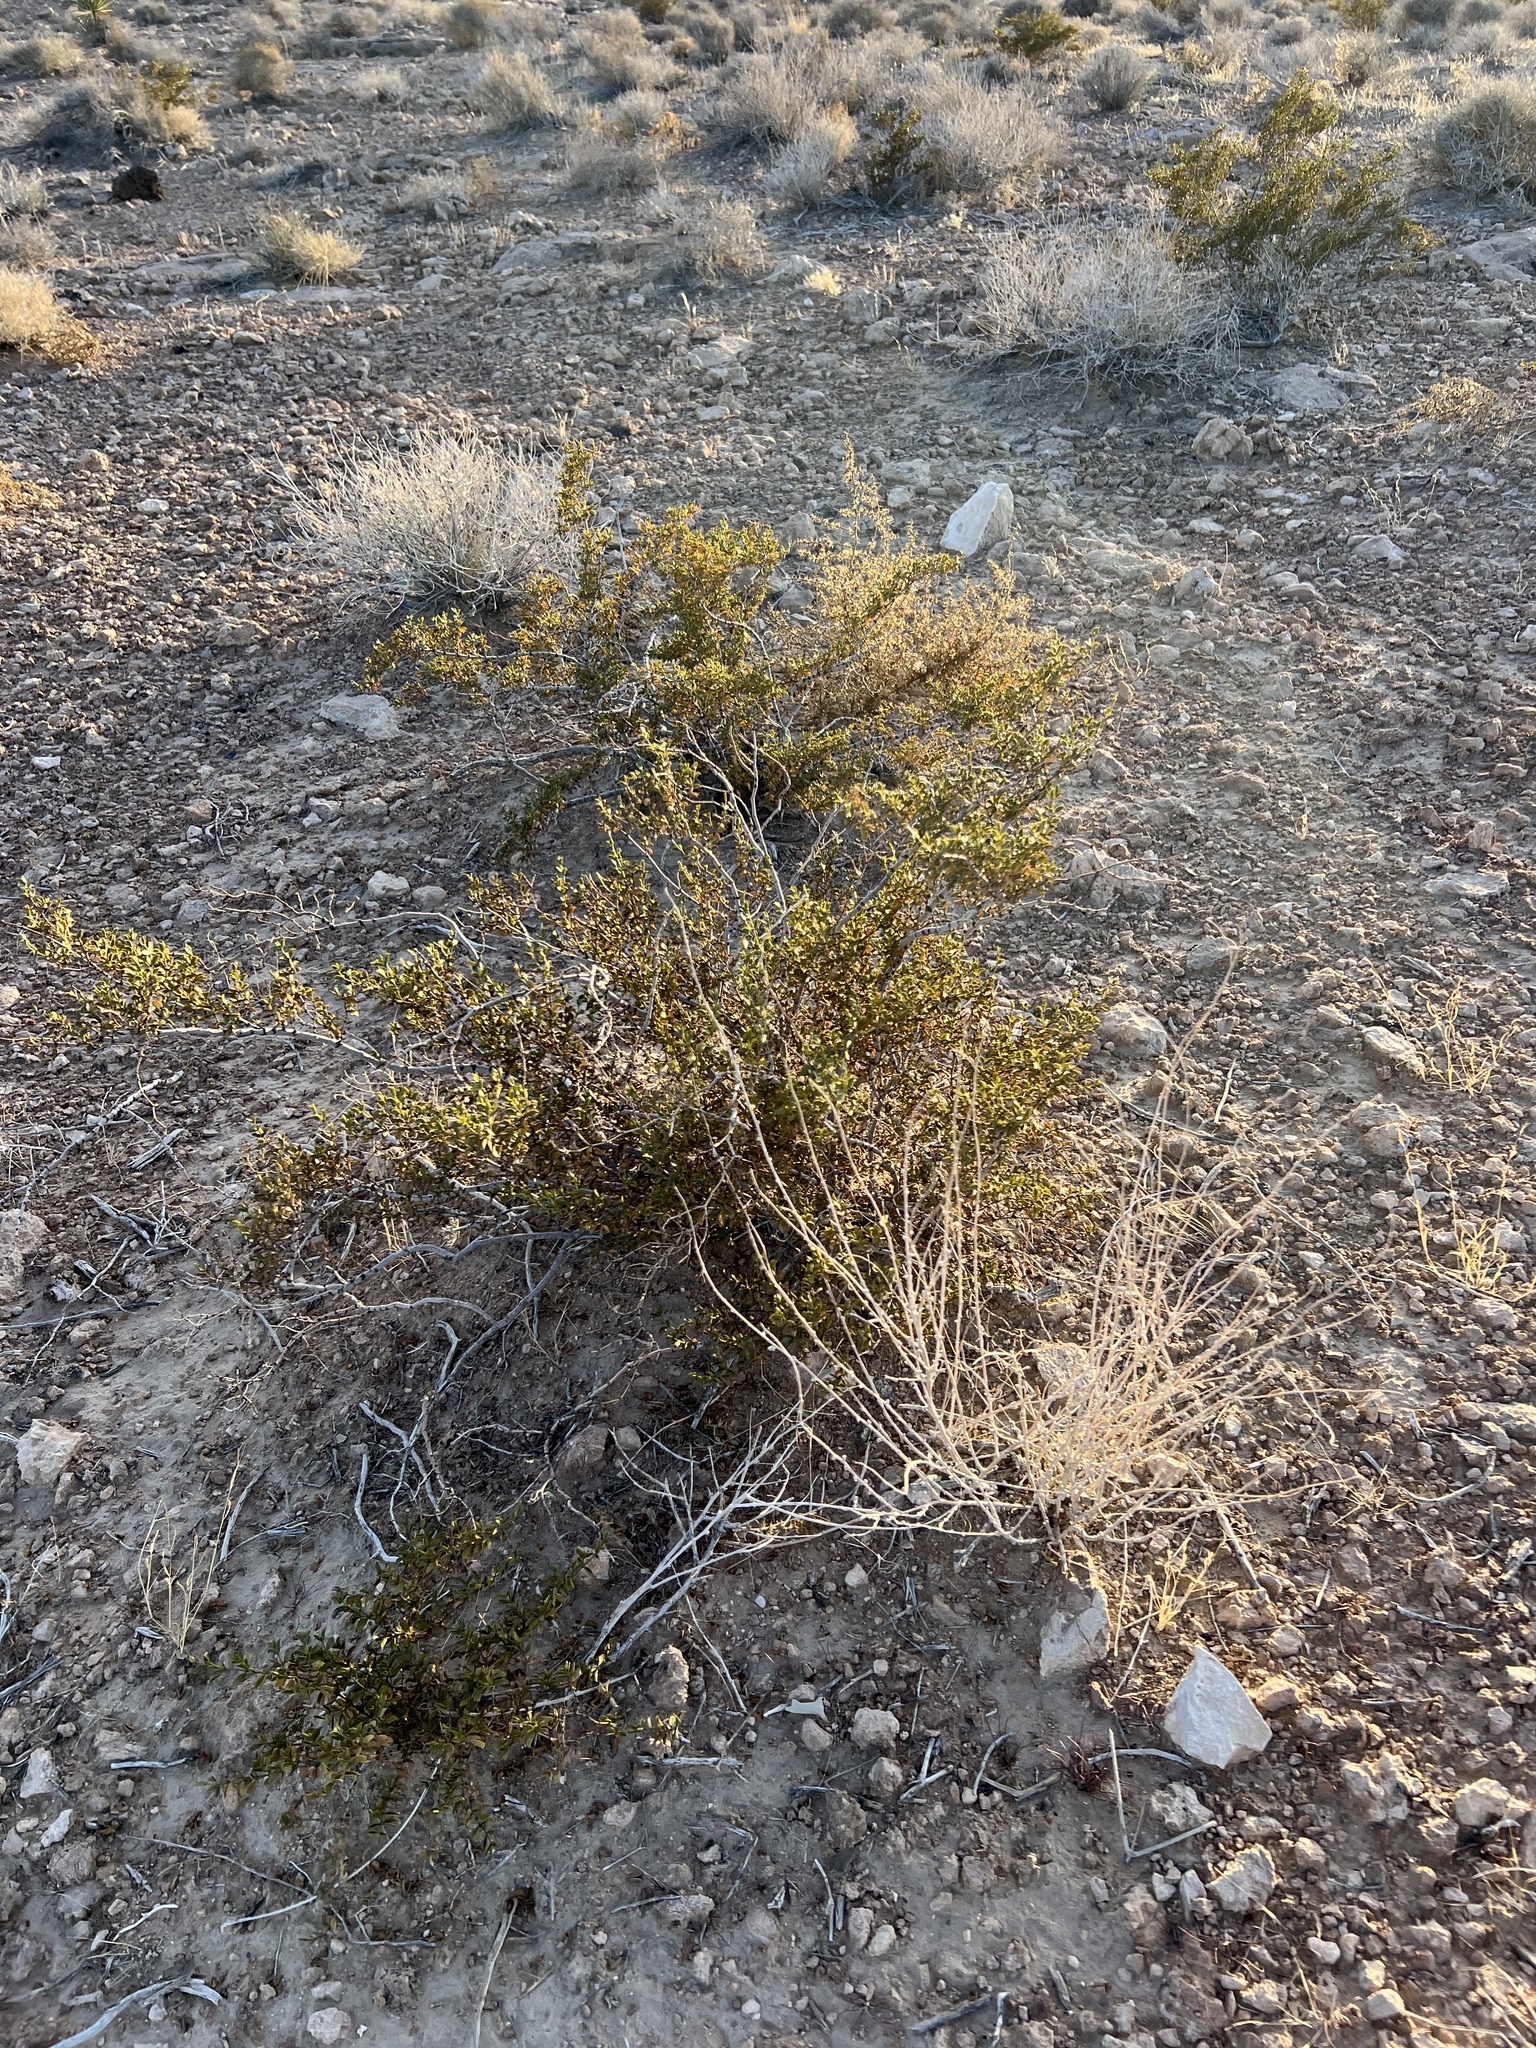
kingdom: Plantae
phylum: Tracheophyta
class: Magnoliopsida
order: Zygophyllales
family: Zygophyllaceae
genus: Larrea
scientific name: Larrea tridentata
